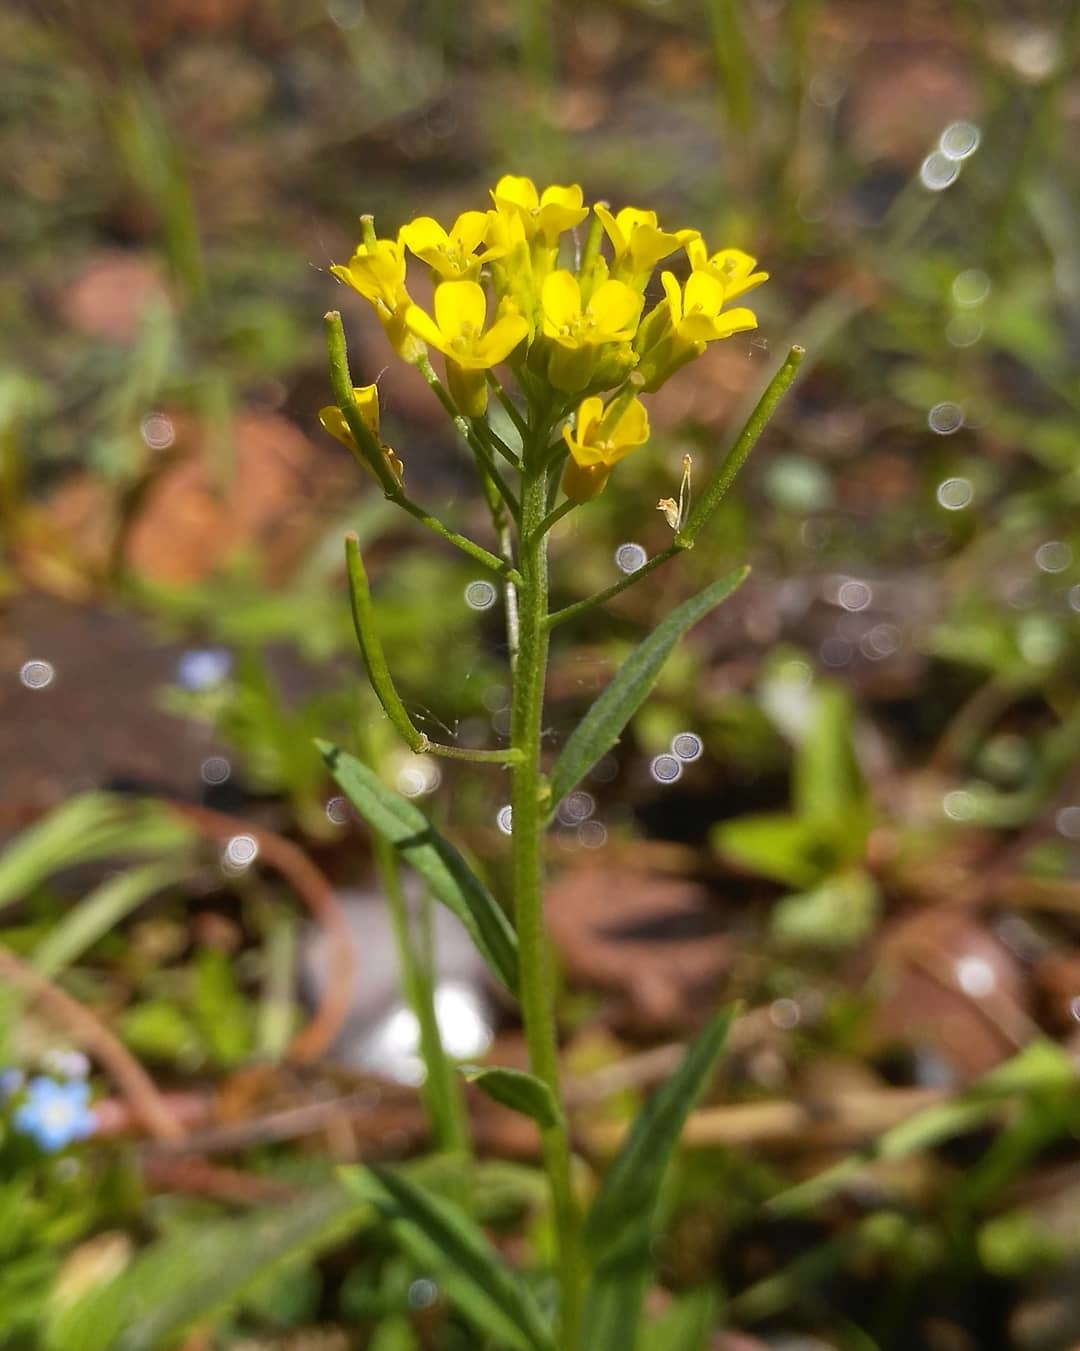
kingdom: Plantae
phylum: Tracheophyta
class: Magnoliopsida
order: Brassicales
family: Brassicaceae
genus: Erysimum
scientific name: Erysimum cheiranthoides
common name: Treacle mustard
